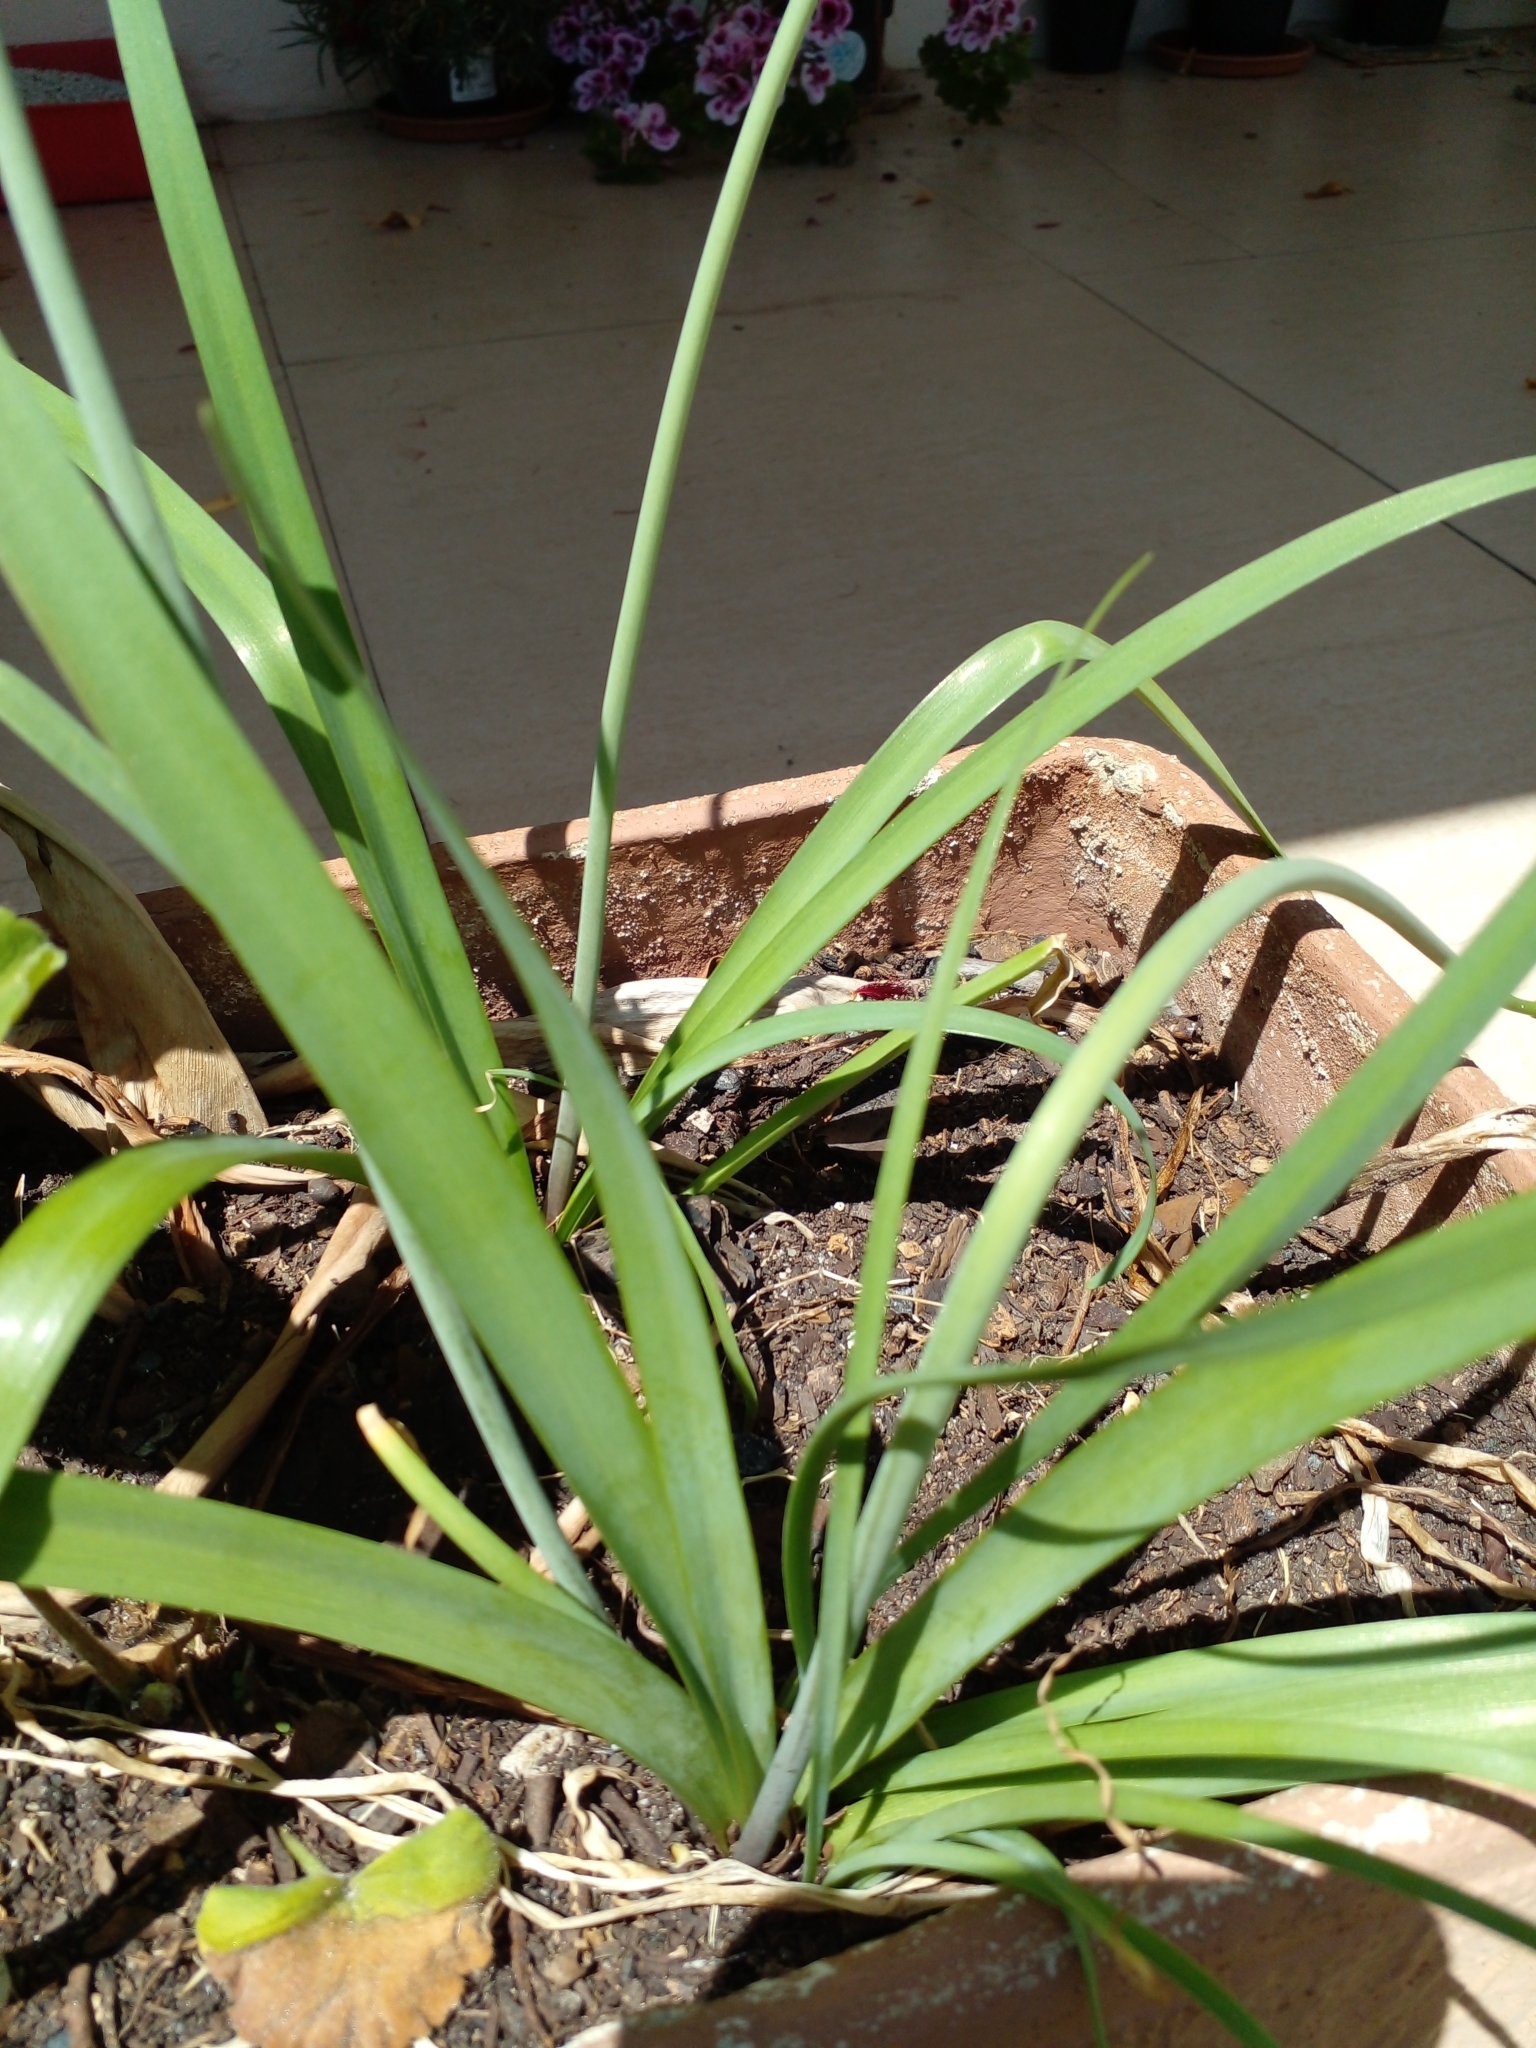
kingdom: Plantae
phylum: Tracheophyta
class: Liliopsida
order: Asparagales
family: Amaryllidaceae
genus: Nothoscordum
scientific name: Nothoscordum gracile
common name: Slender false garlic
